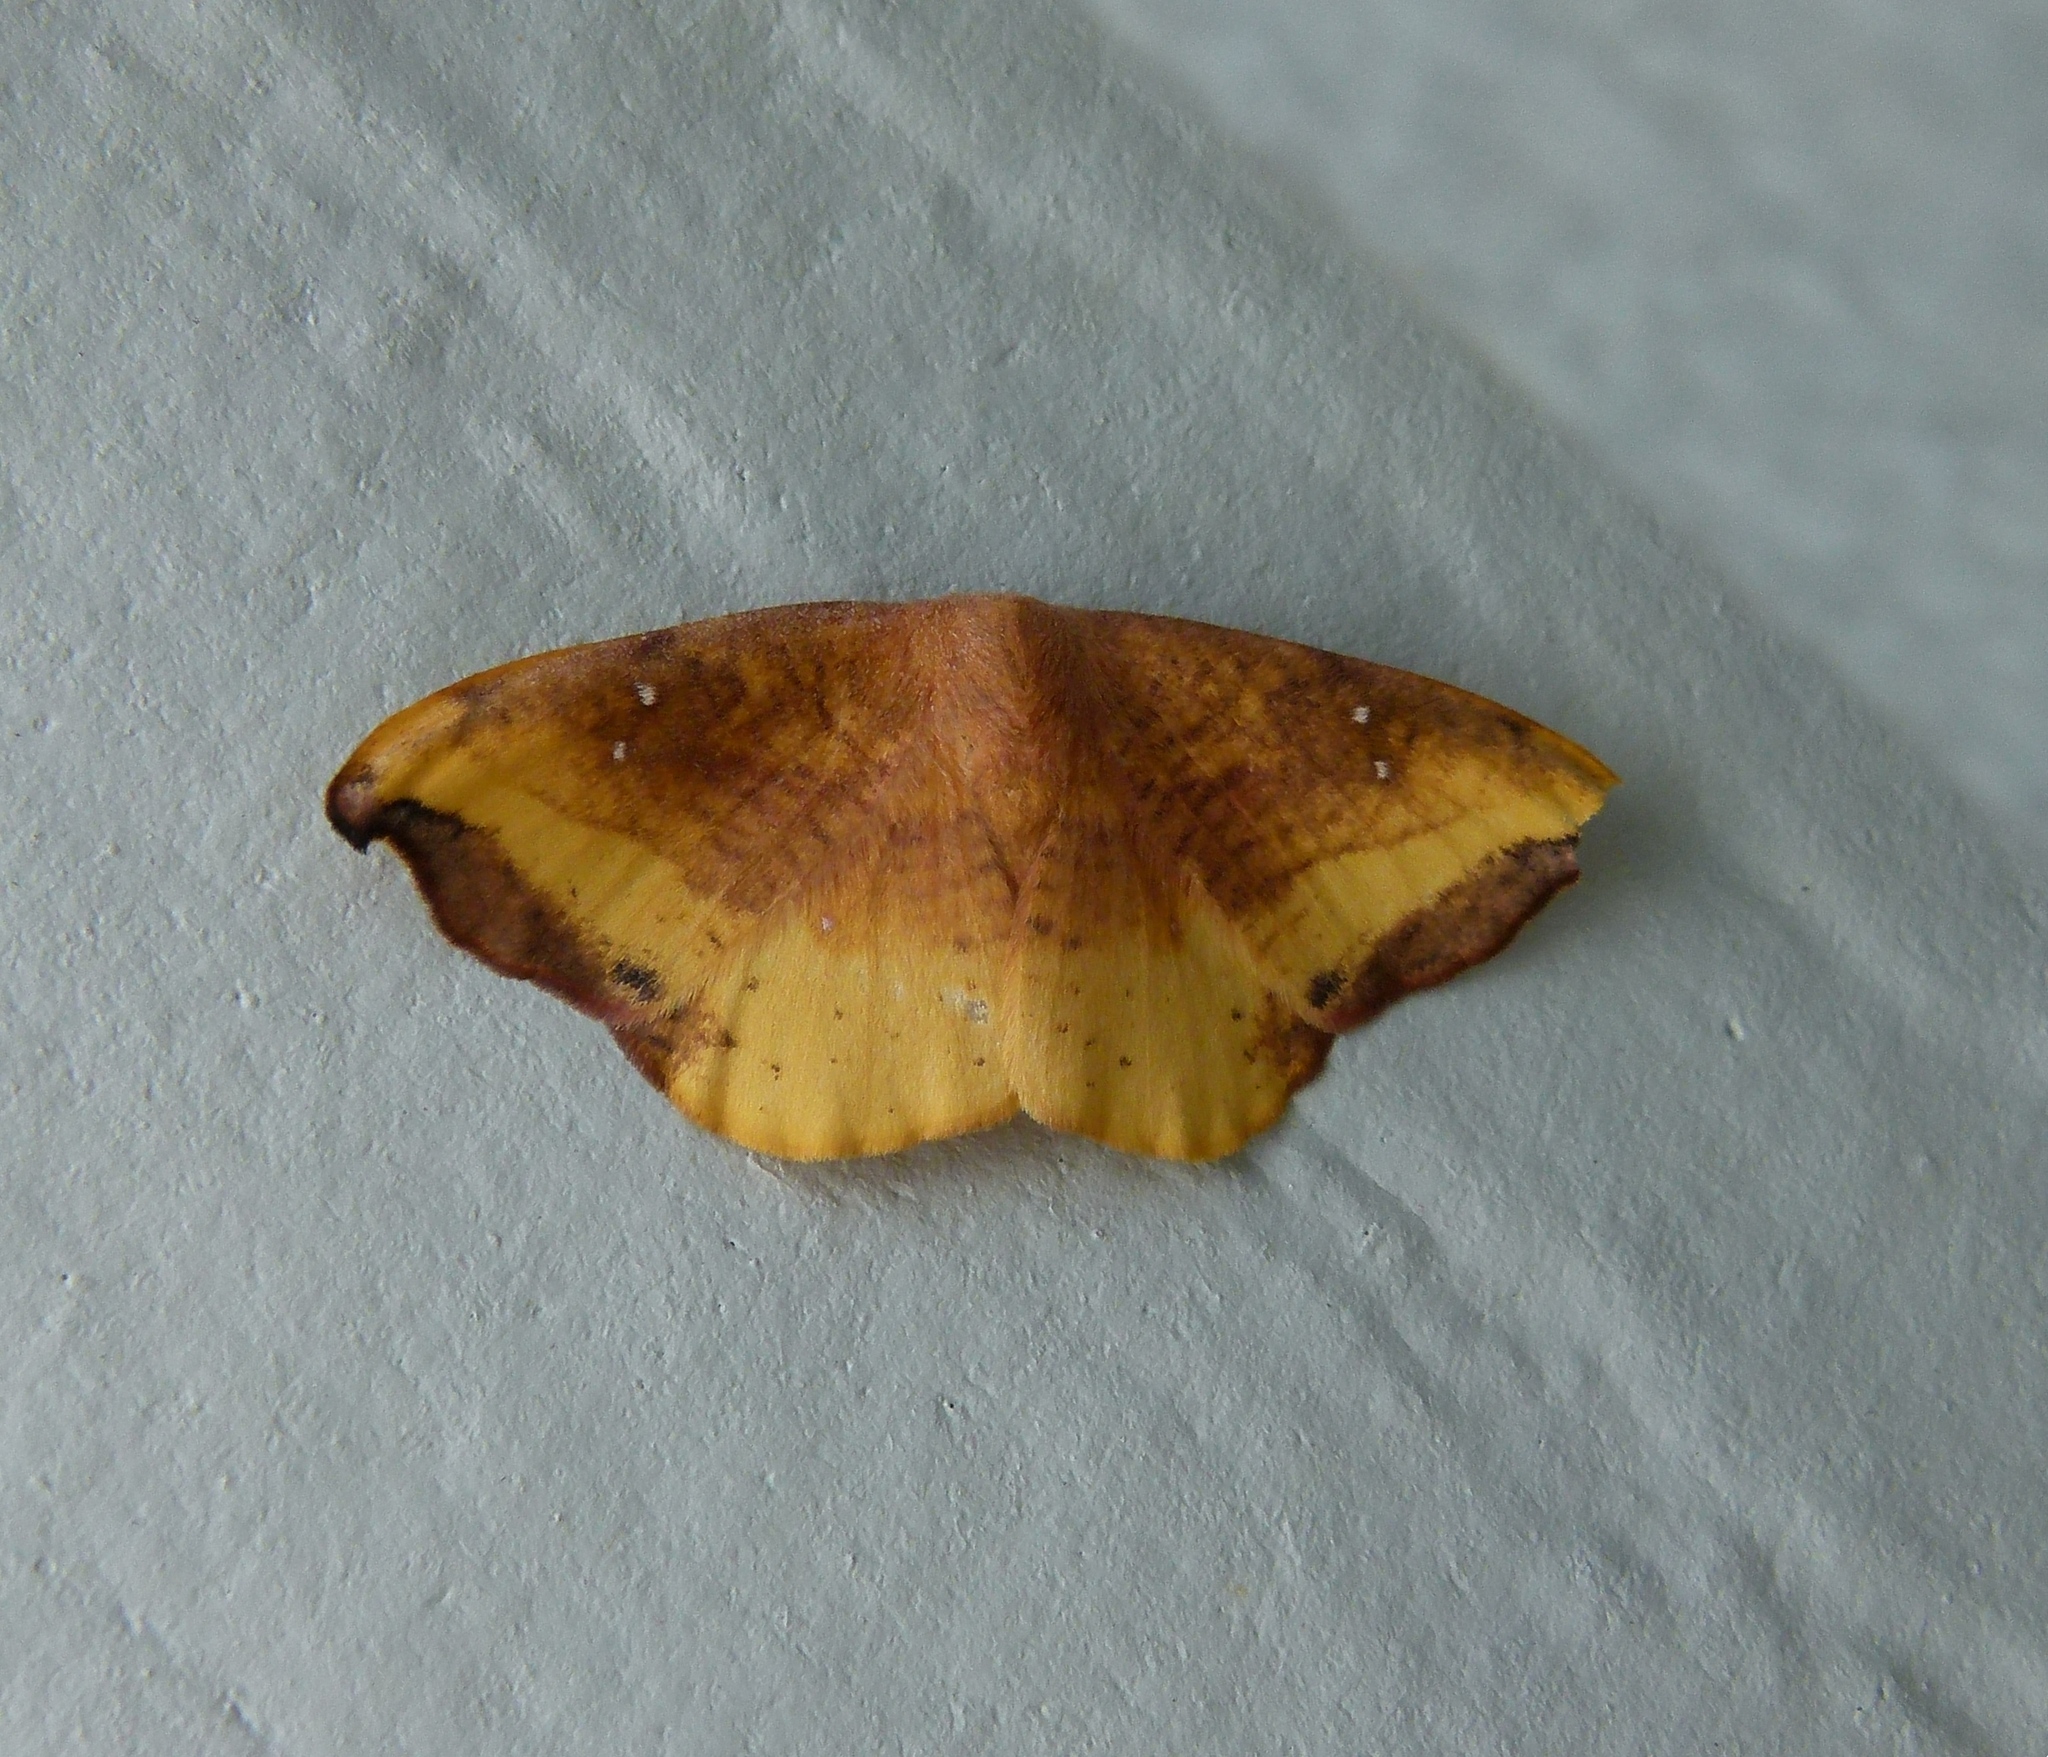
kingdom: Animalia
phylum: Arthropoda
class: Insecta
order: Lepidoptera
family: Drepanidae
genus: Oreta
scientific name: Oreta rosea
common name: Rose hooktip
